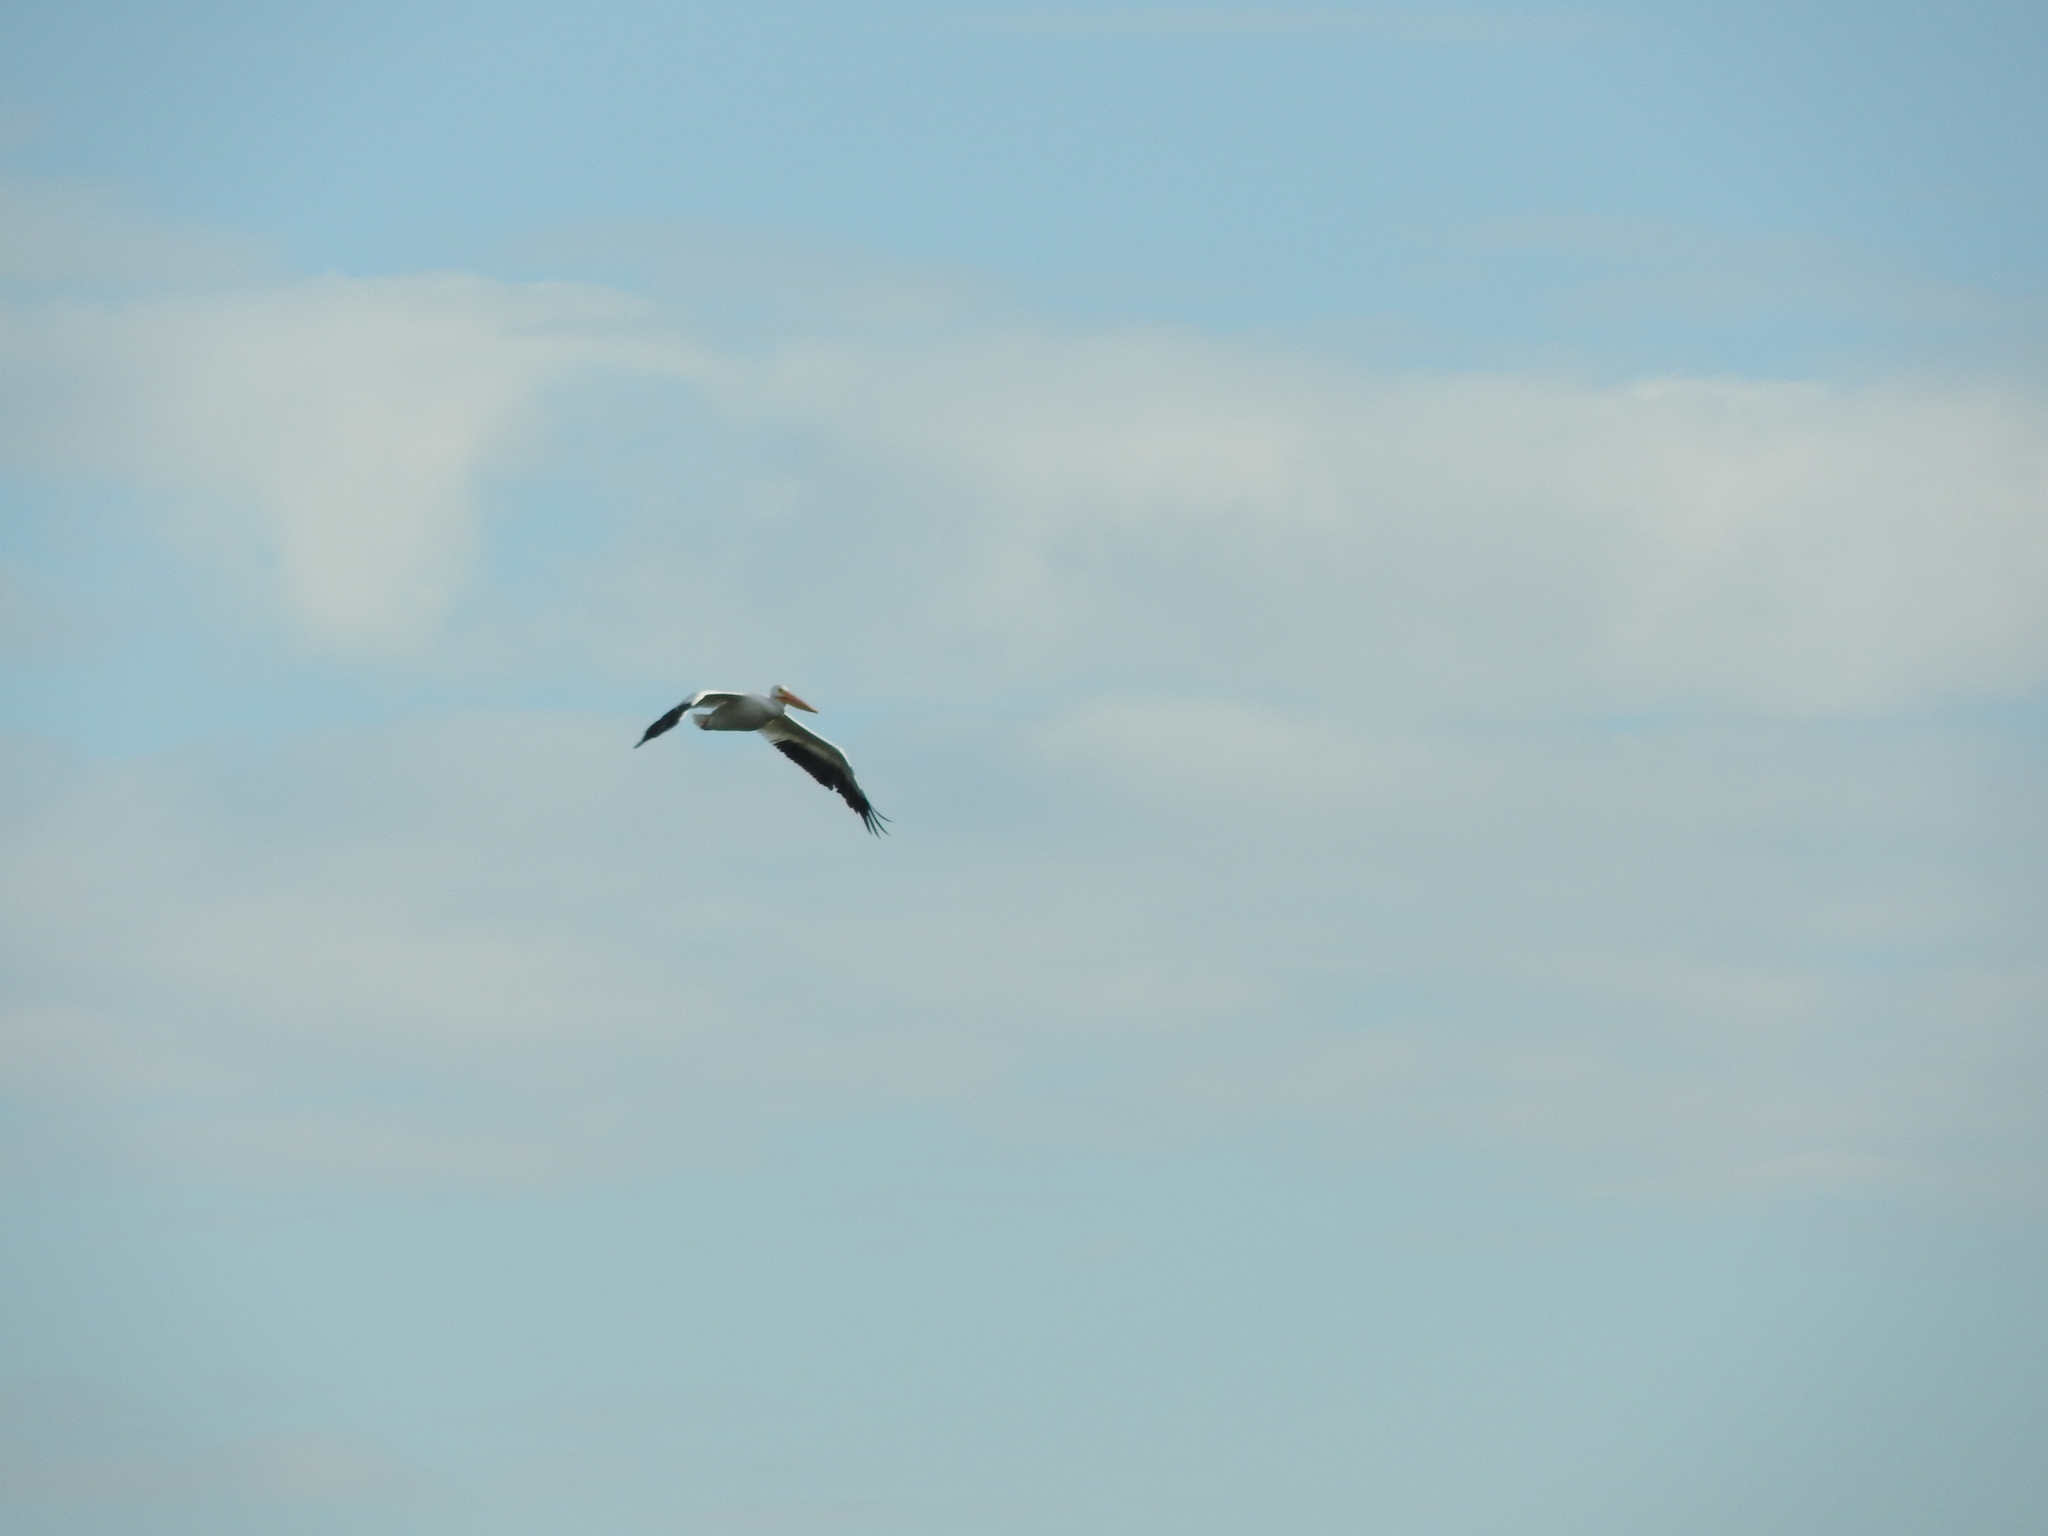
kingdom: Animalia
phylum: Chordata
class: Aves
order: Pelecaniformes
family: Pelecanidae
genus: Pelecanus
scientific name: Pelecanus erythrorhynchos
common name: American white pelican
